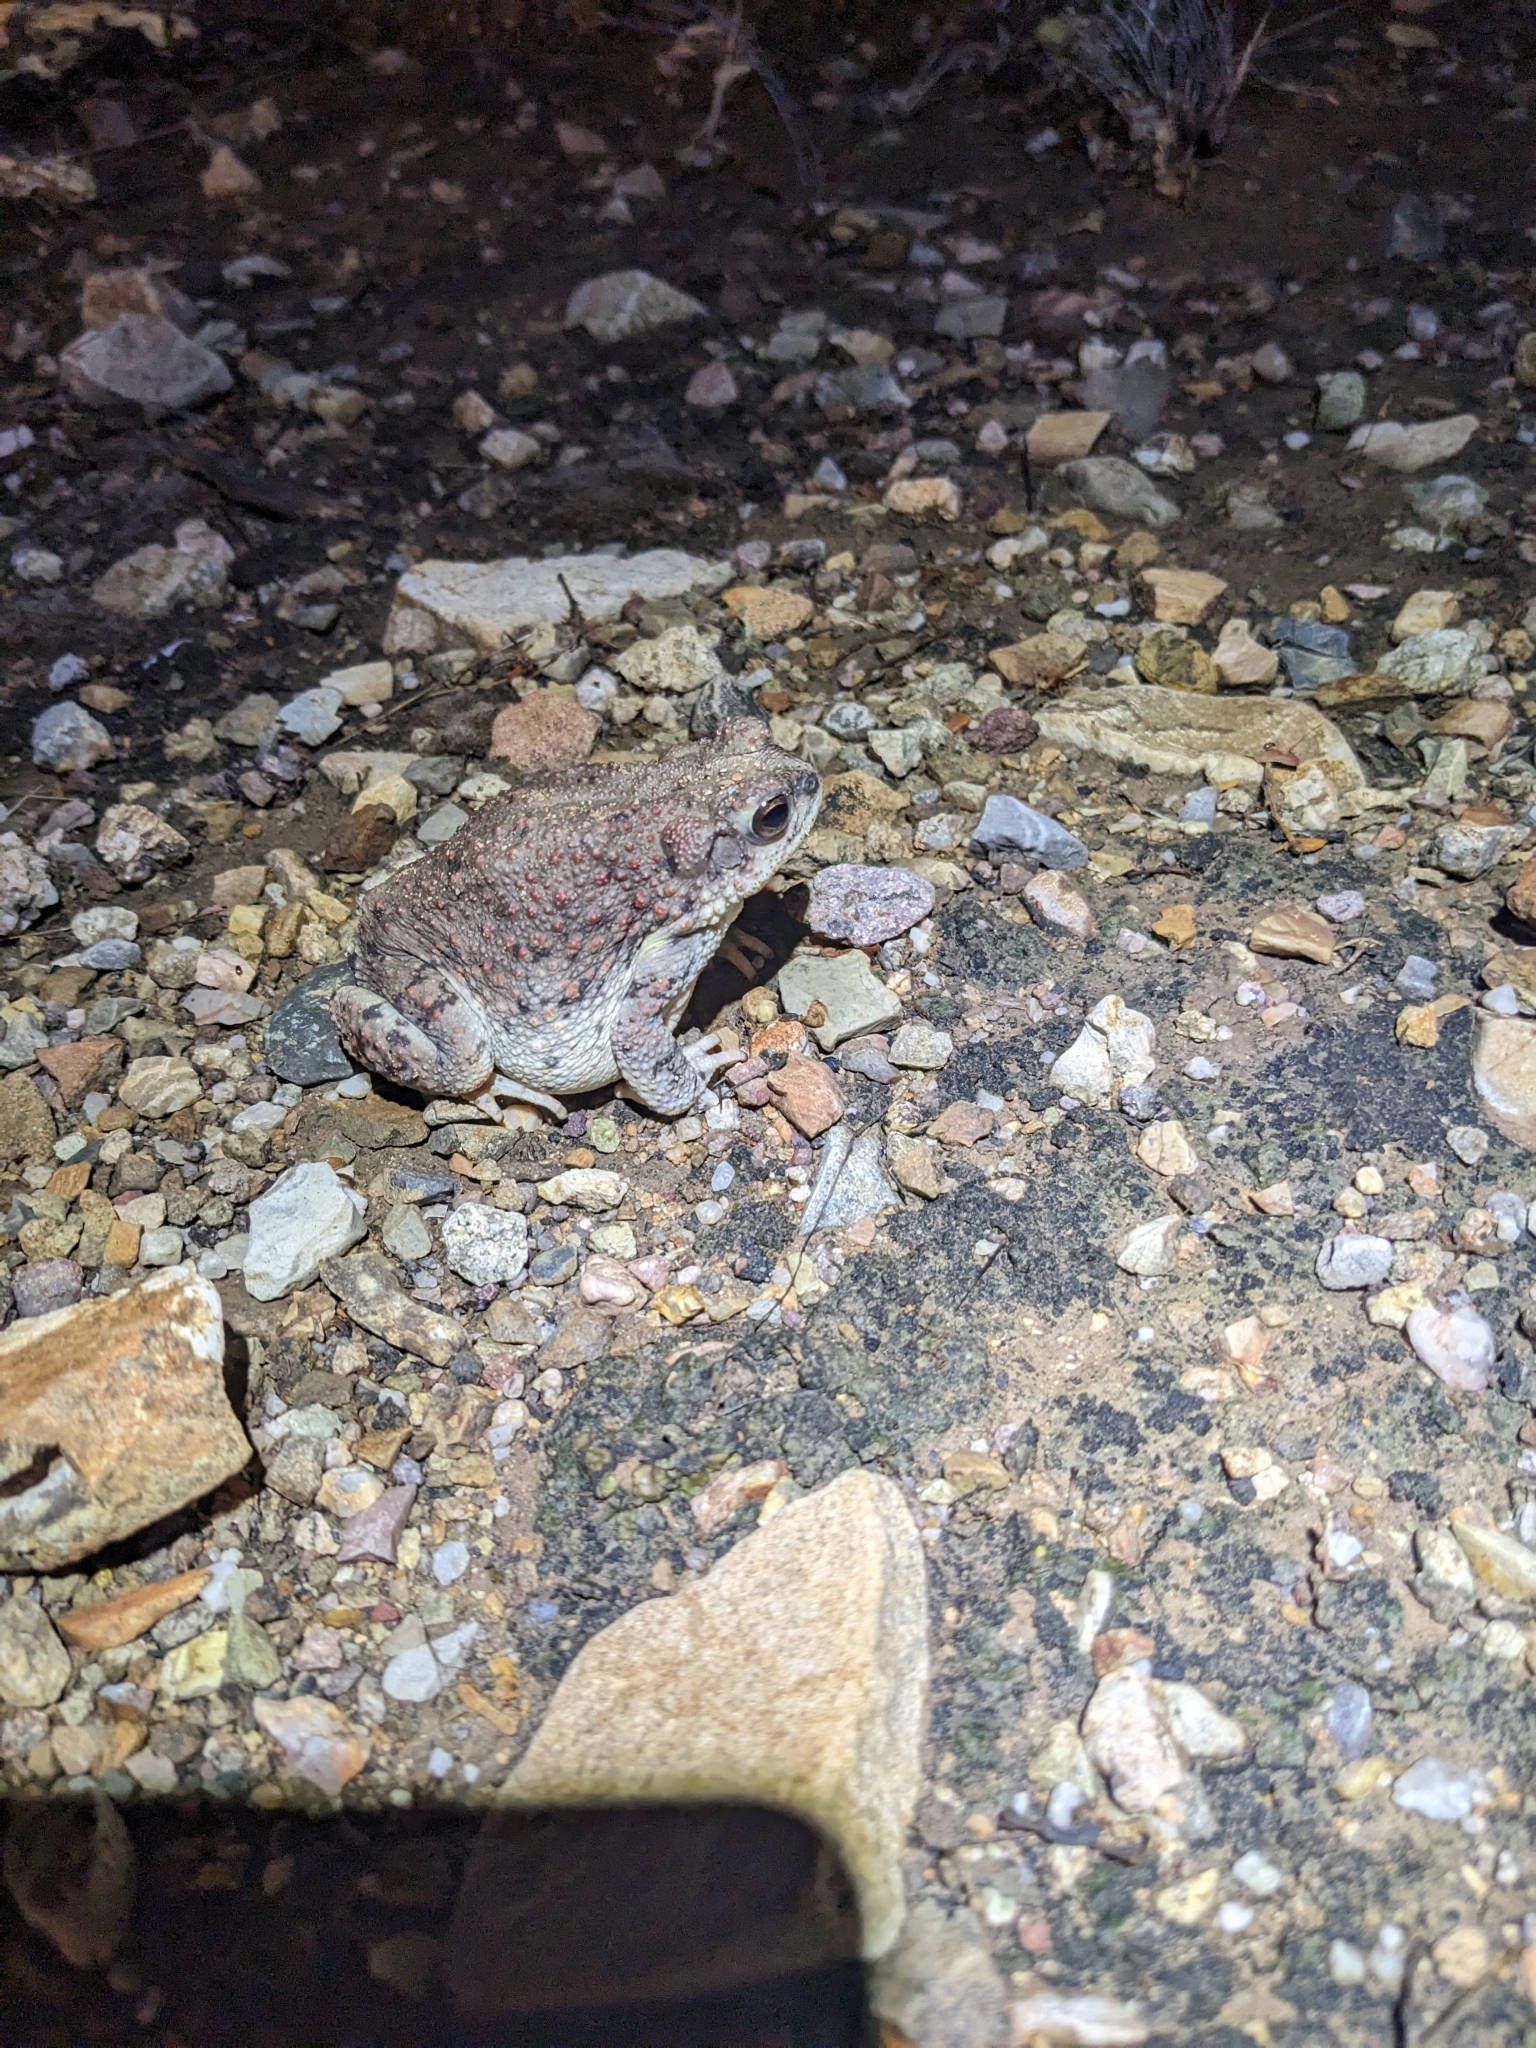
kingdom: Animalia
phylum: Chordata
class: Amphibia
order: Anura
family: Bufonidae
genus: Anaxyrus
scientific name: Anaxyrus punctatus
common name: Red-spotted toad
